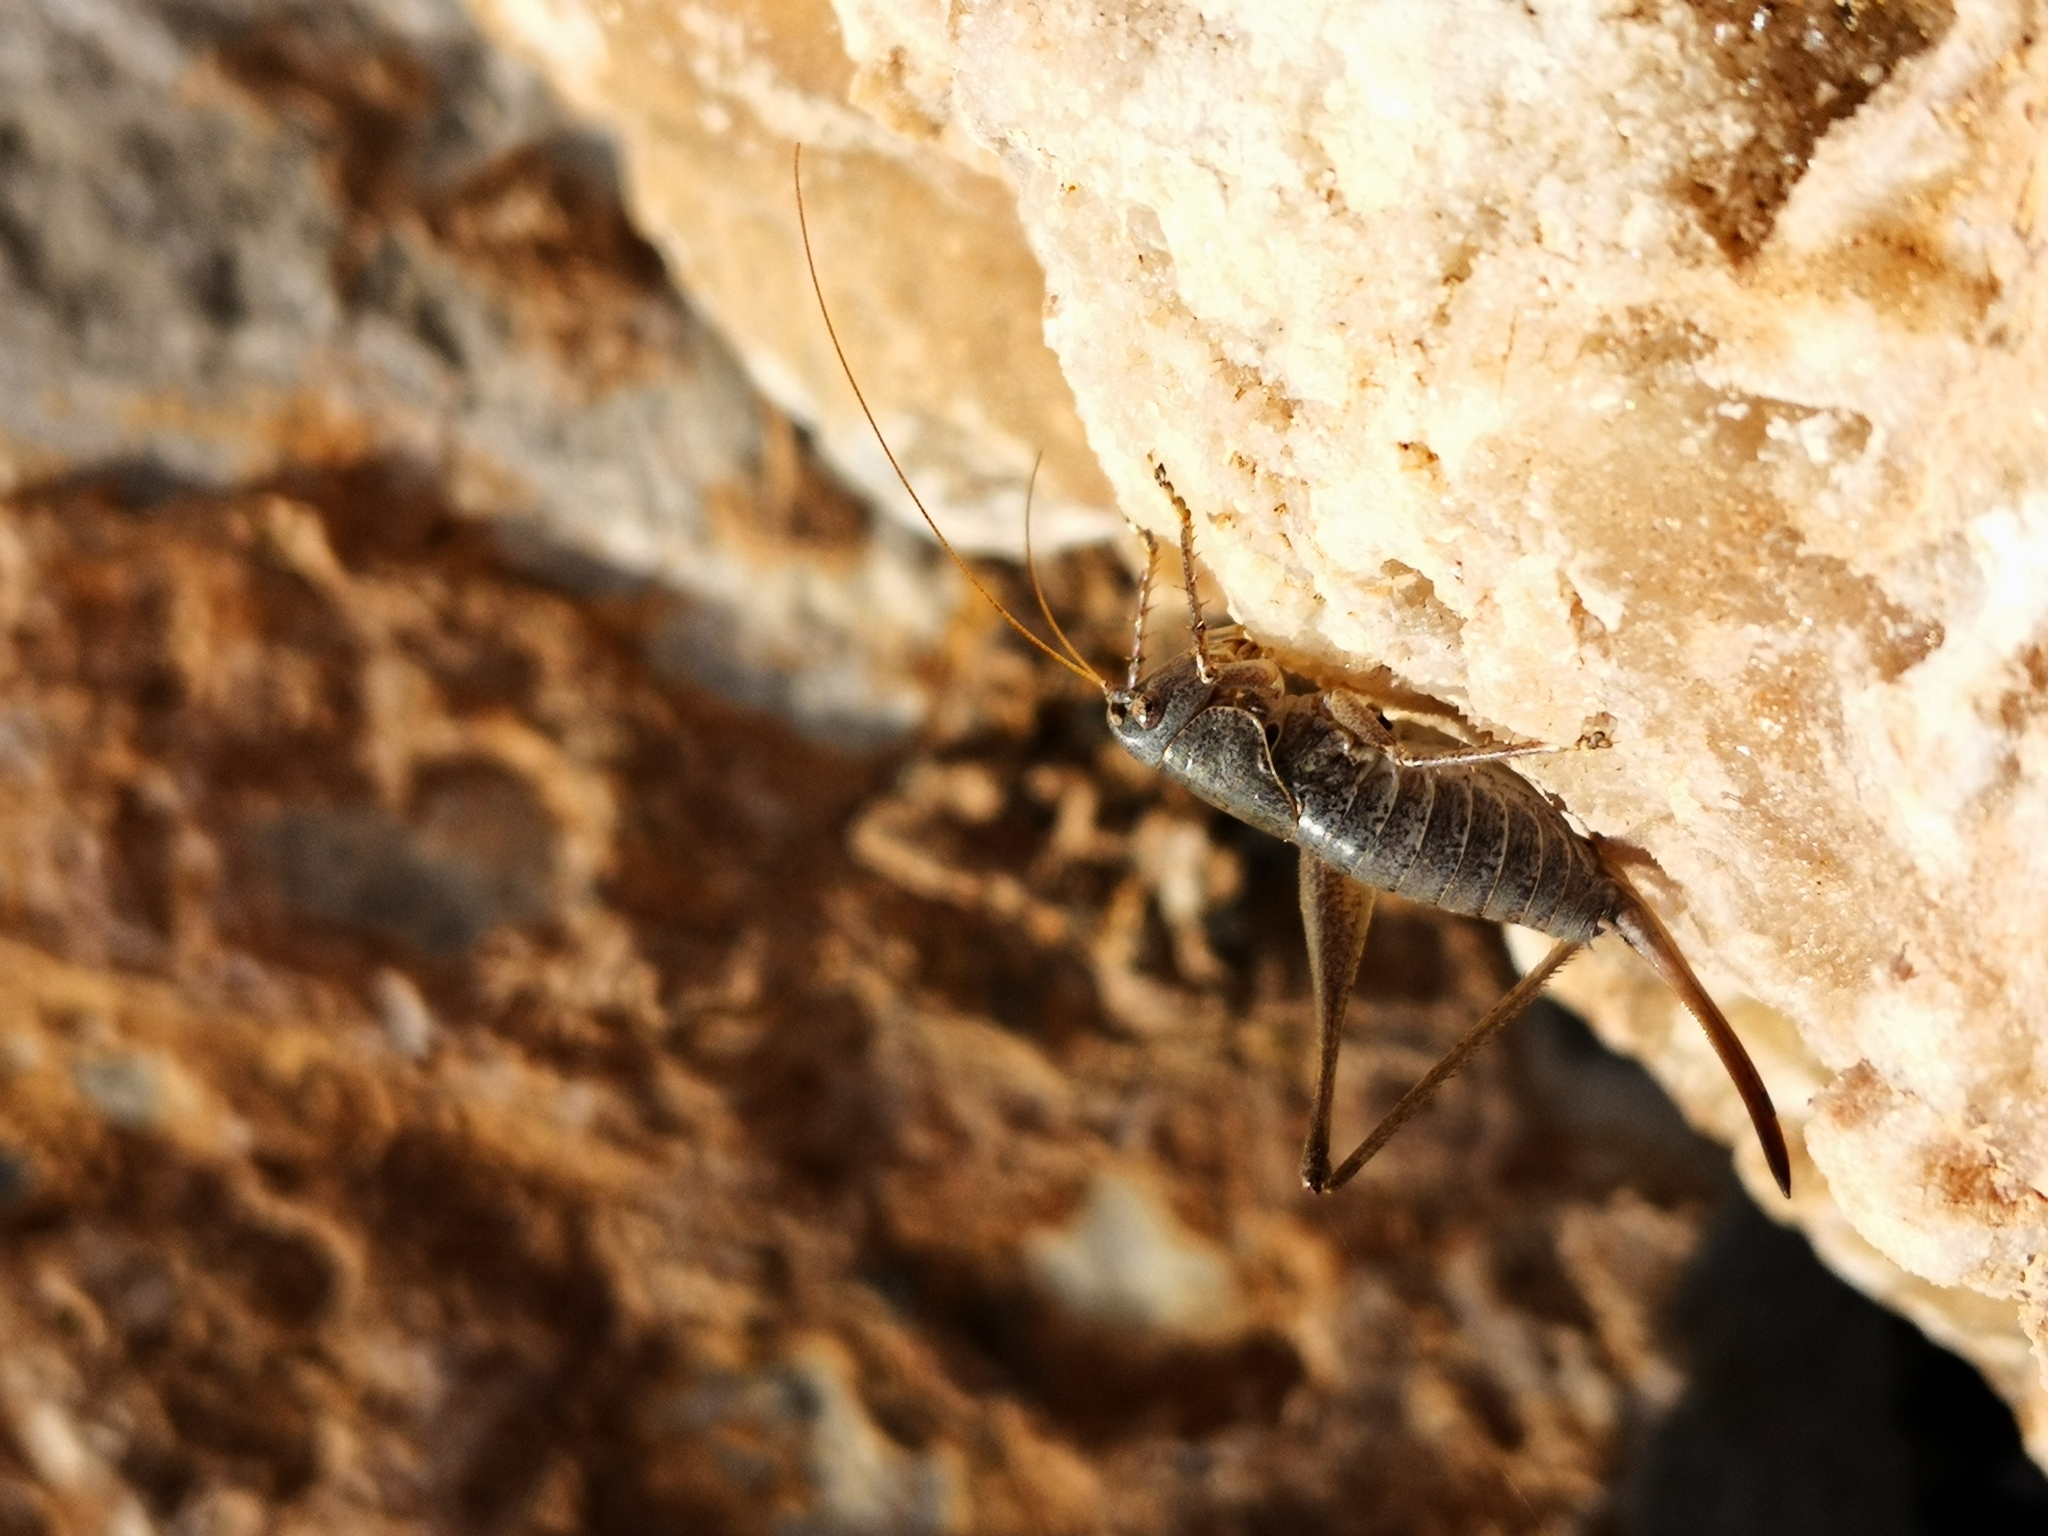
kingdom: Animalia
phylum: Arthropoda
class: Insecta
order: Orthoptera
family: Tettigoniidae
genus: Rhacocleis
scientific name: Rhacocleis
